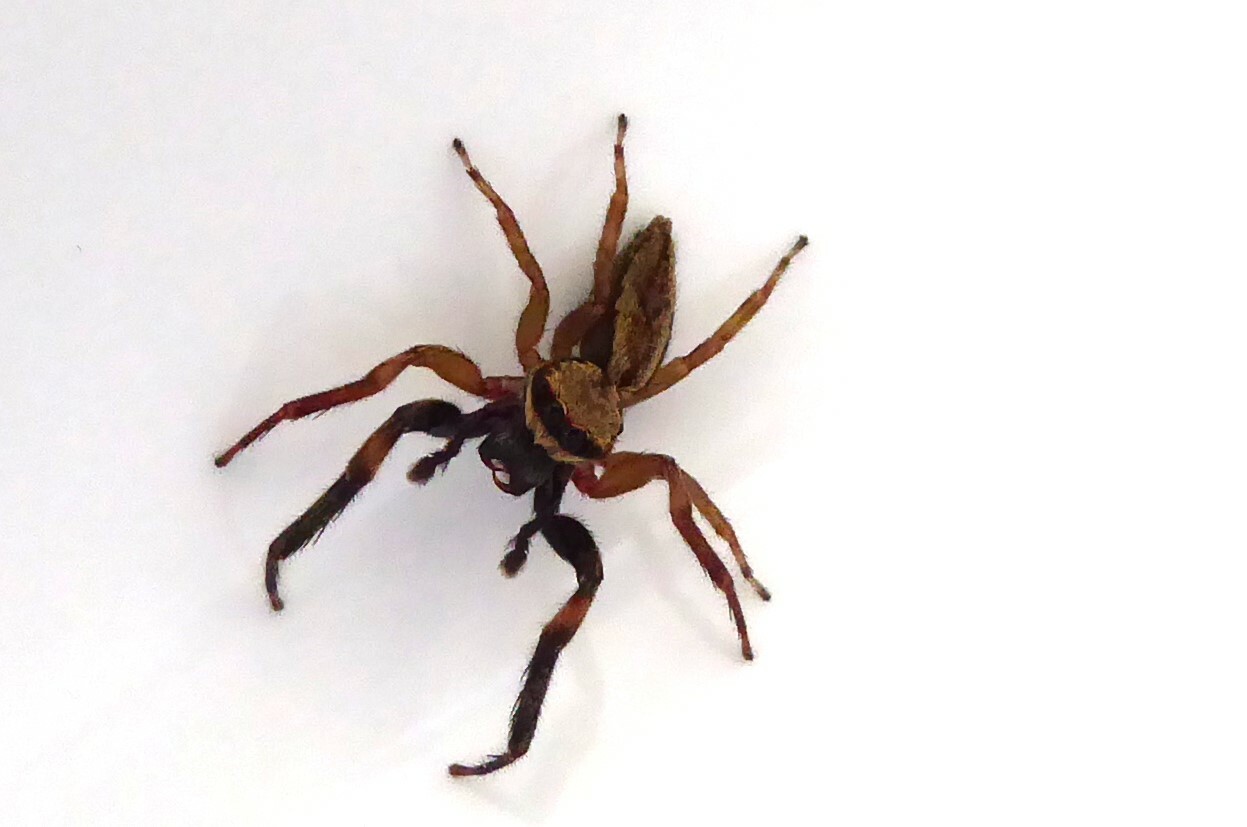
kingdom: Animalia
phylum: Arthropoda
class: Arachnida
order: Araneae
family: Salticidae
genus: Trite
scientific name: Trite auricoma
